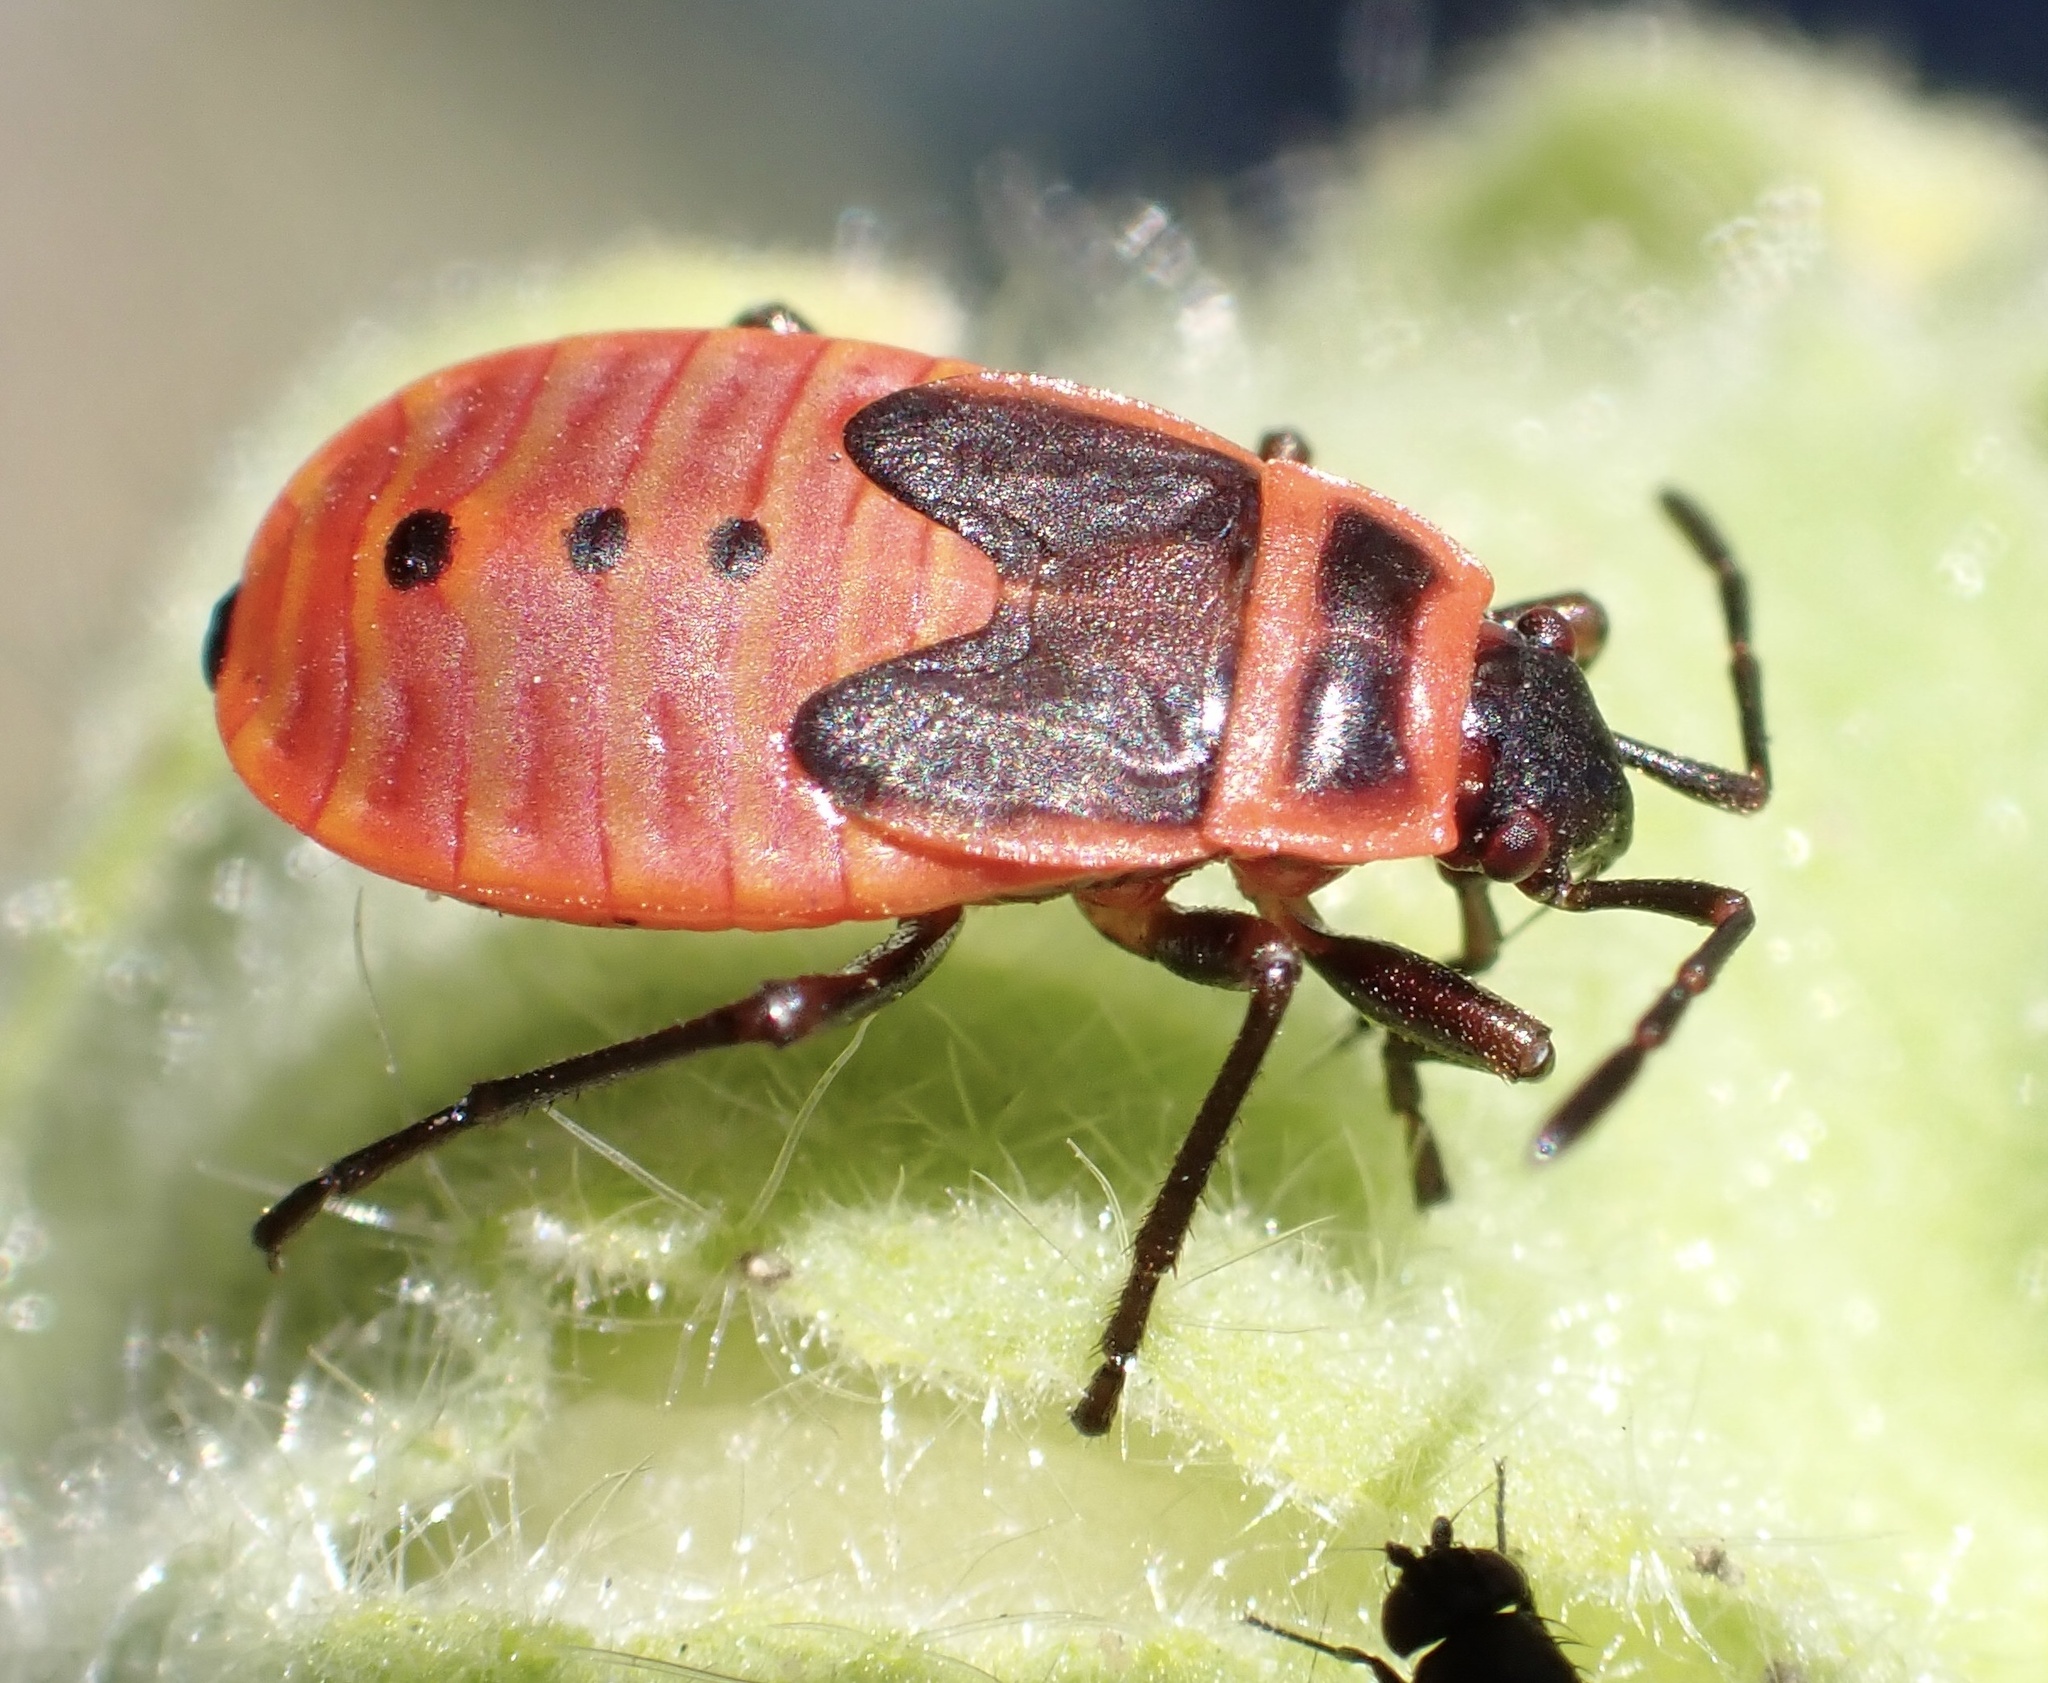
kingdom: Animalia
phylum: Arthropoda
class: Insecta
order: Hemiptera
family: Pyrrhocoridae
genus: Pyrrhocoris
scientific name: Pyrrhocoris apterus
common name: Firebug
